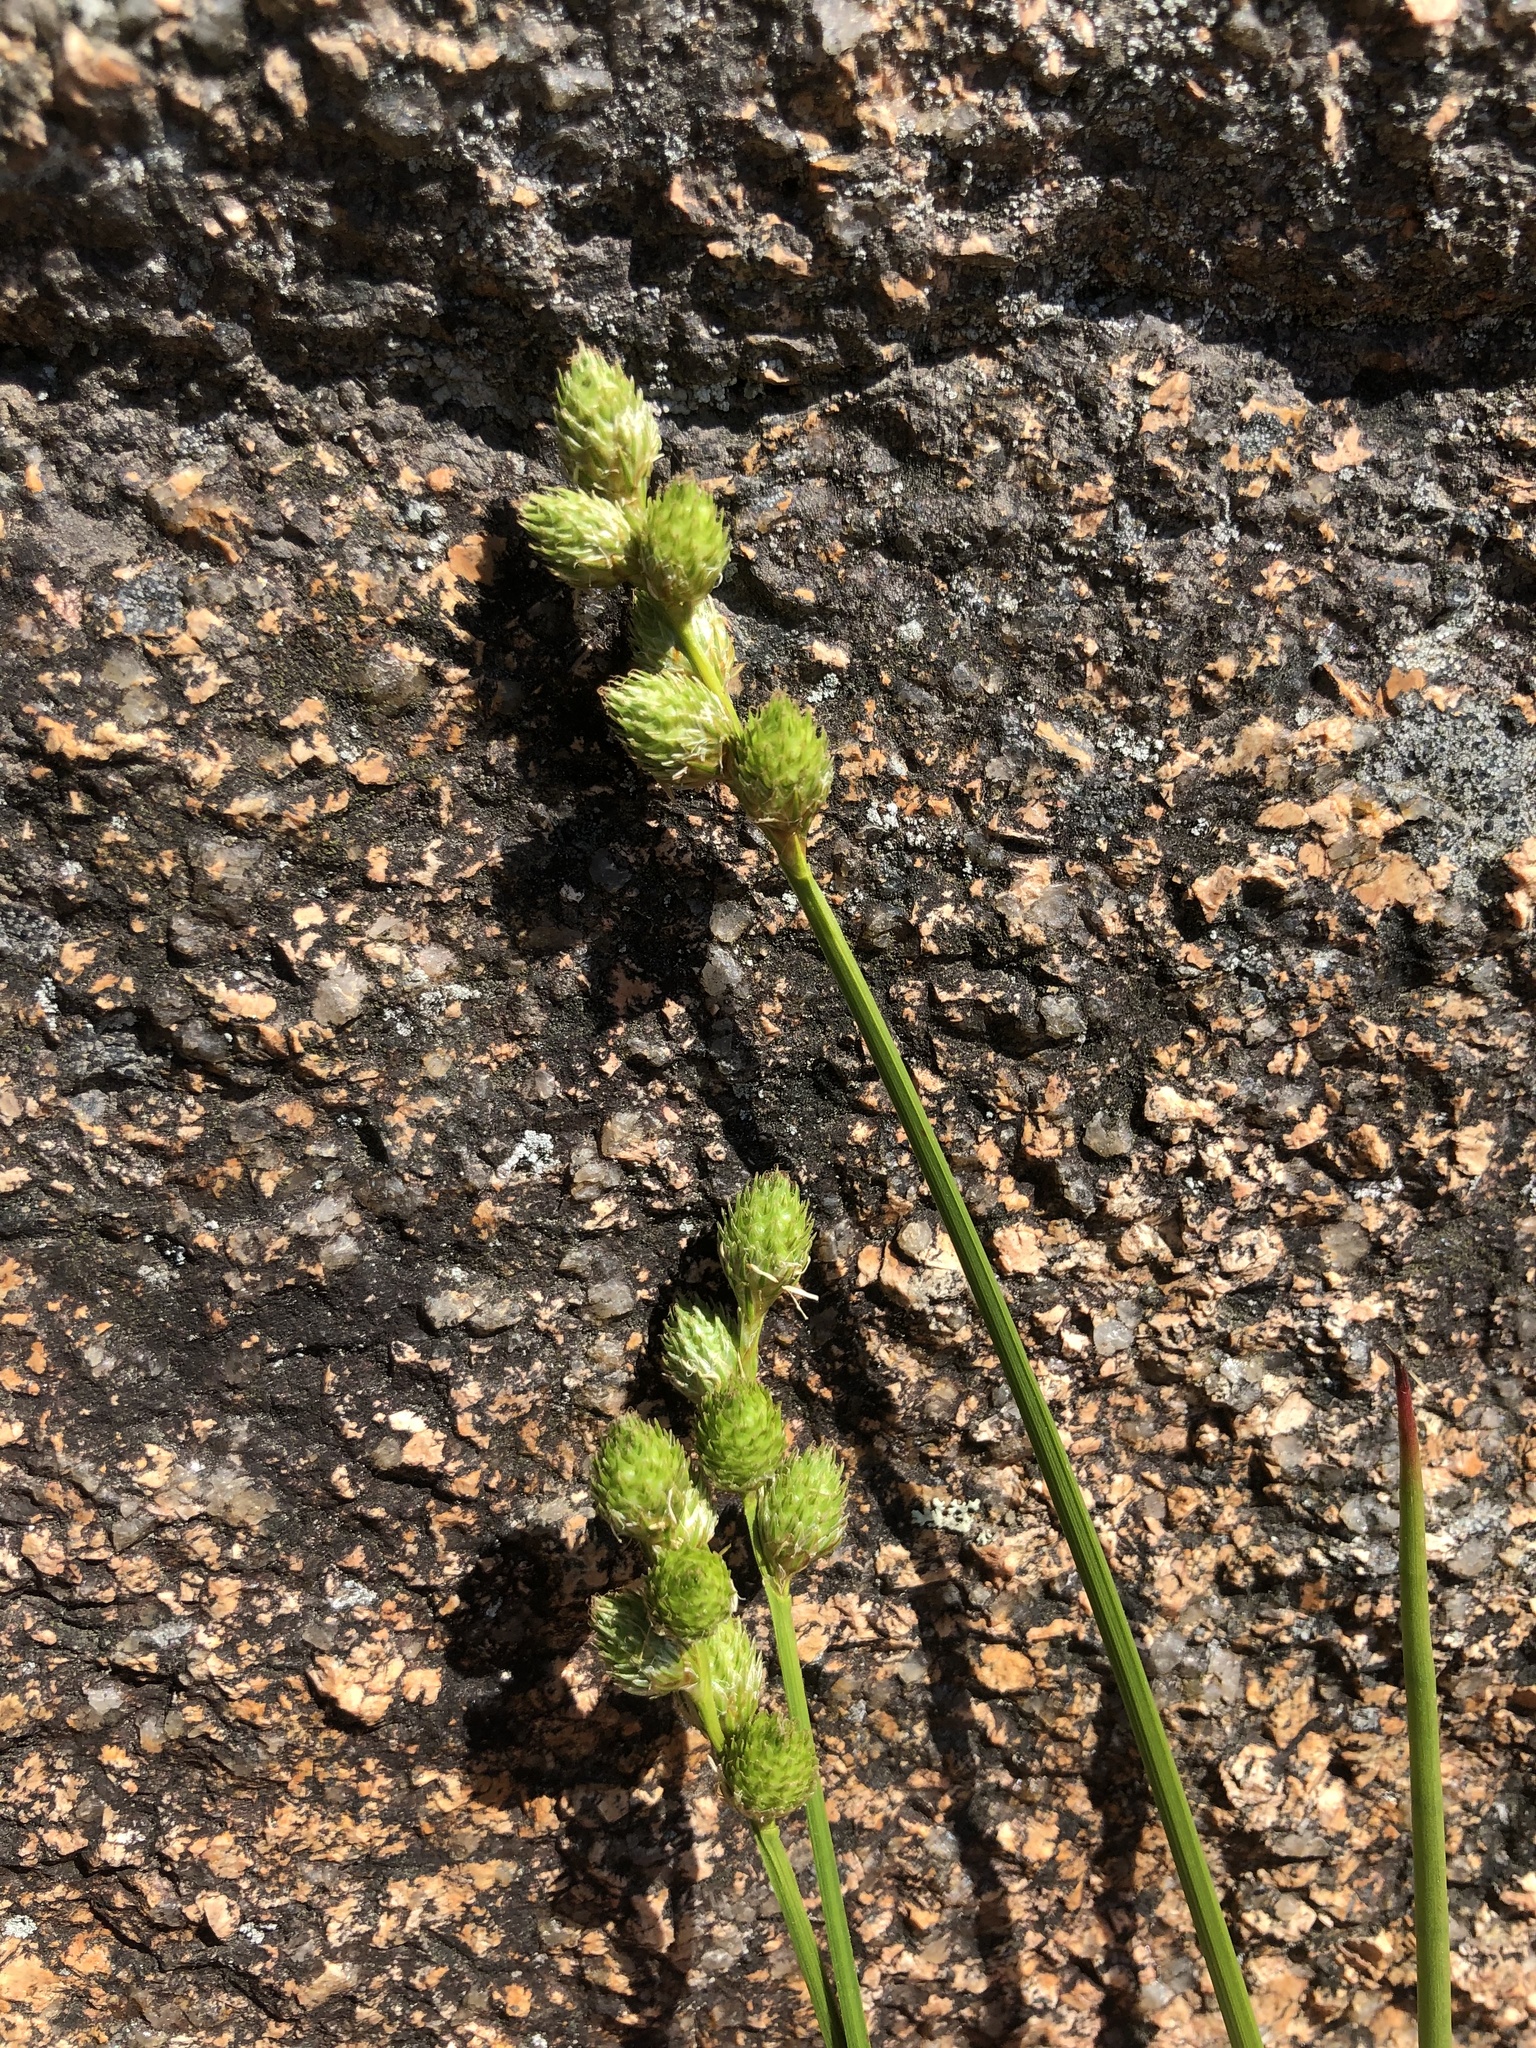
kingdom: Plantae
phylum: Tracheophyta
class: Liliopsida
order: Poales
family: Cyperaceae
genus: Carex
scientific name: Carex cumulata
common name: Accumulating sedge
